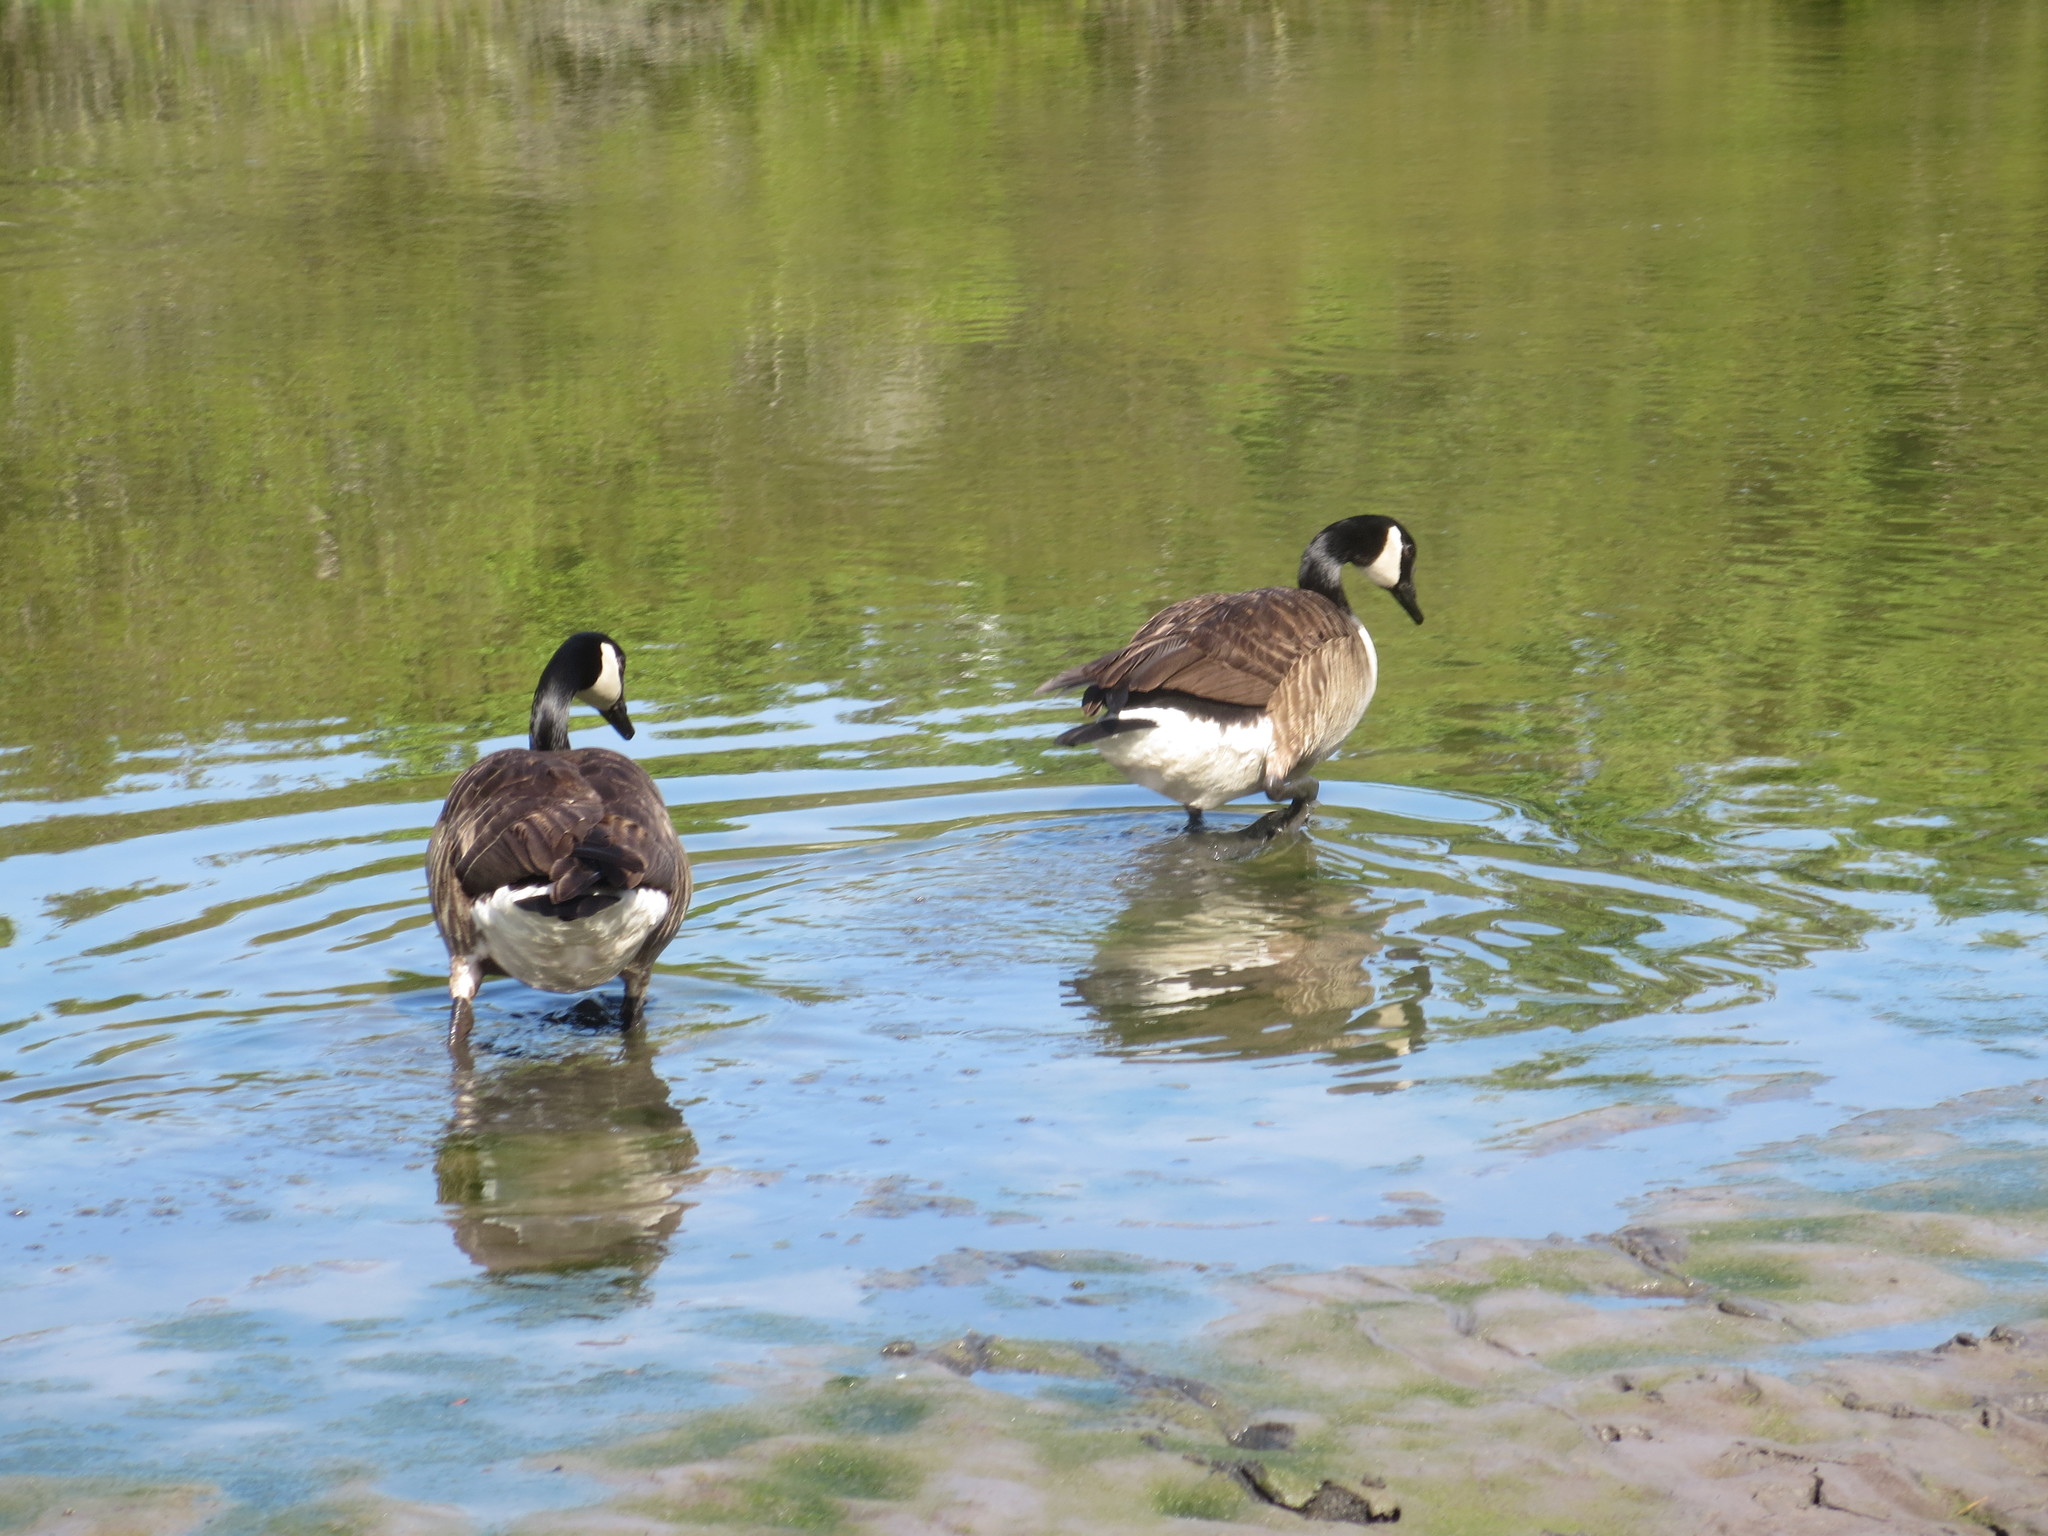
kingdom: Animalia
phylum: Chordata
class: Aves
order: Anseriformes
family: Anatidae
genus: Branta
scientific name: Branta canadensis
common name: Canada goose
